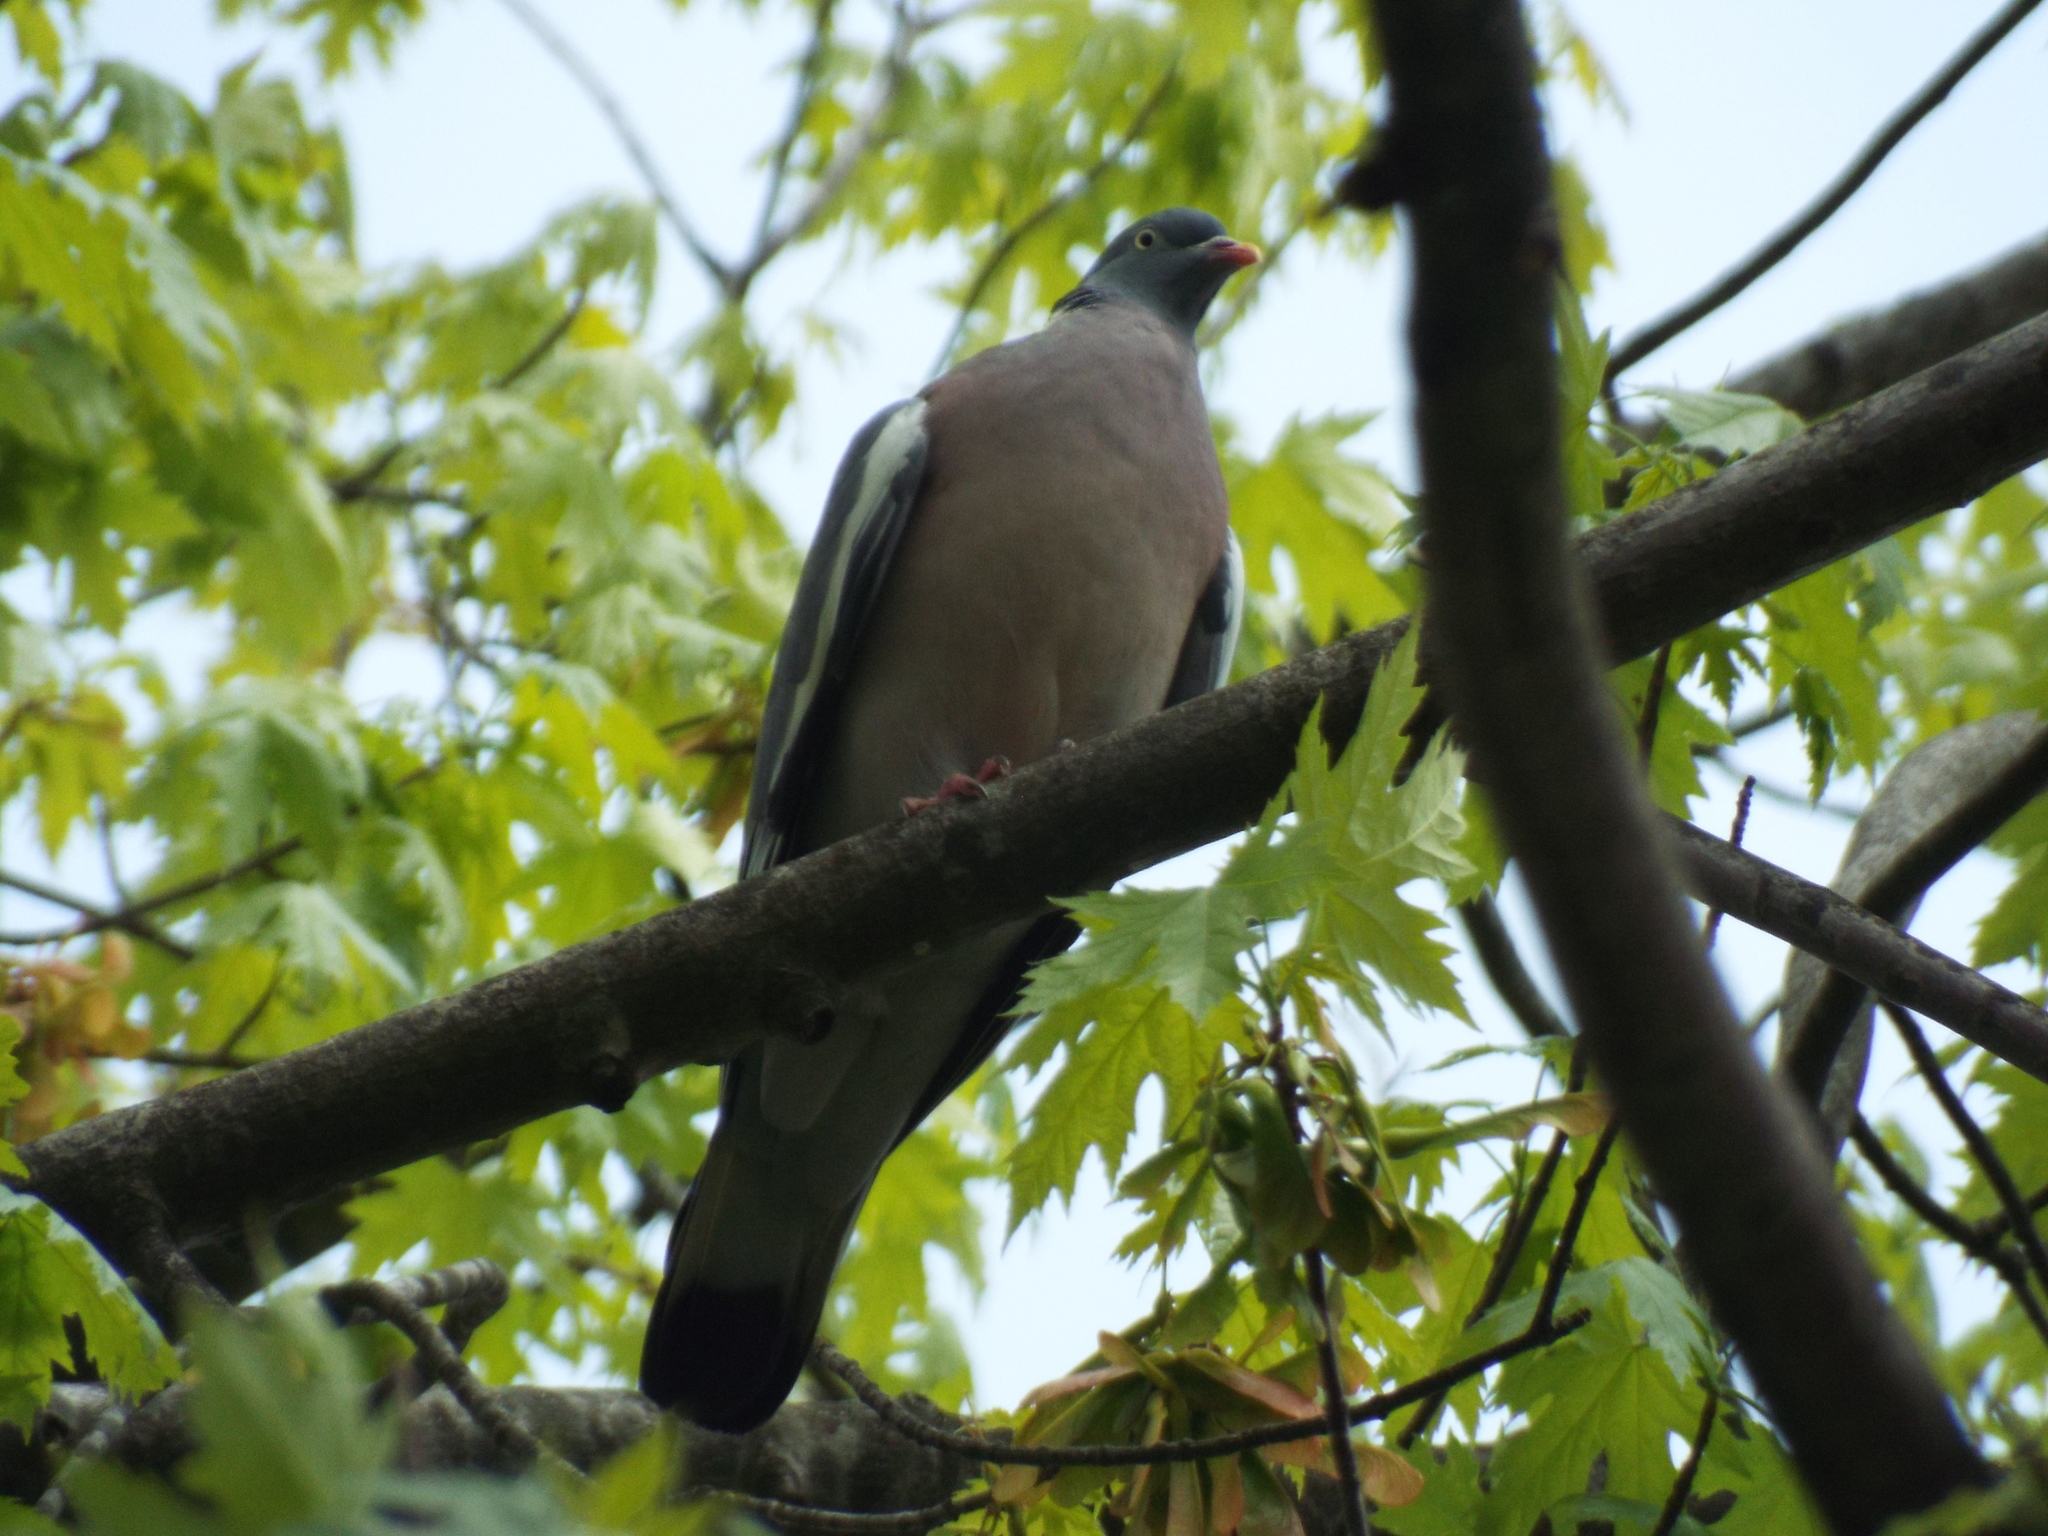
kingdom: Animalia
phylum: Chordata
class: Aves
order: Columbiformes
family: Columbidae
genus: Columba
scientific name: Columba palumbus
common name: Common wood pigeon
